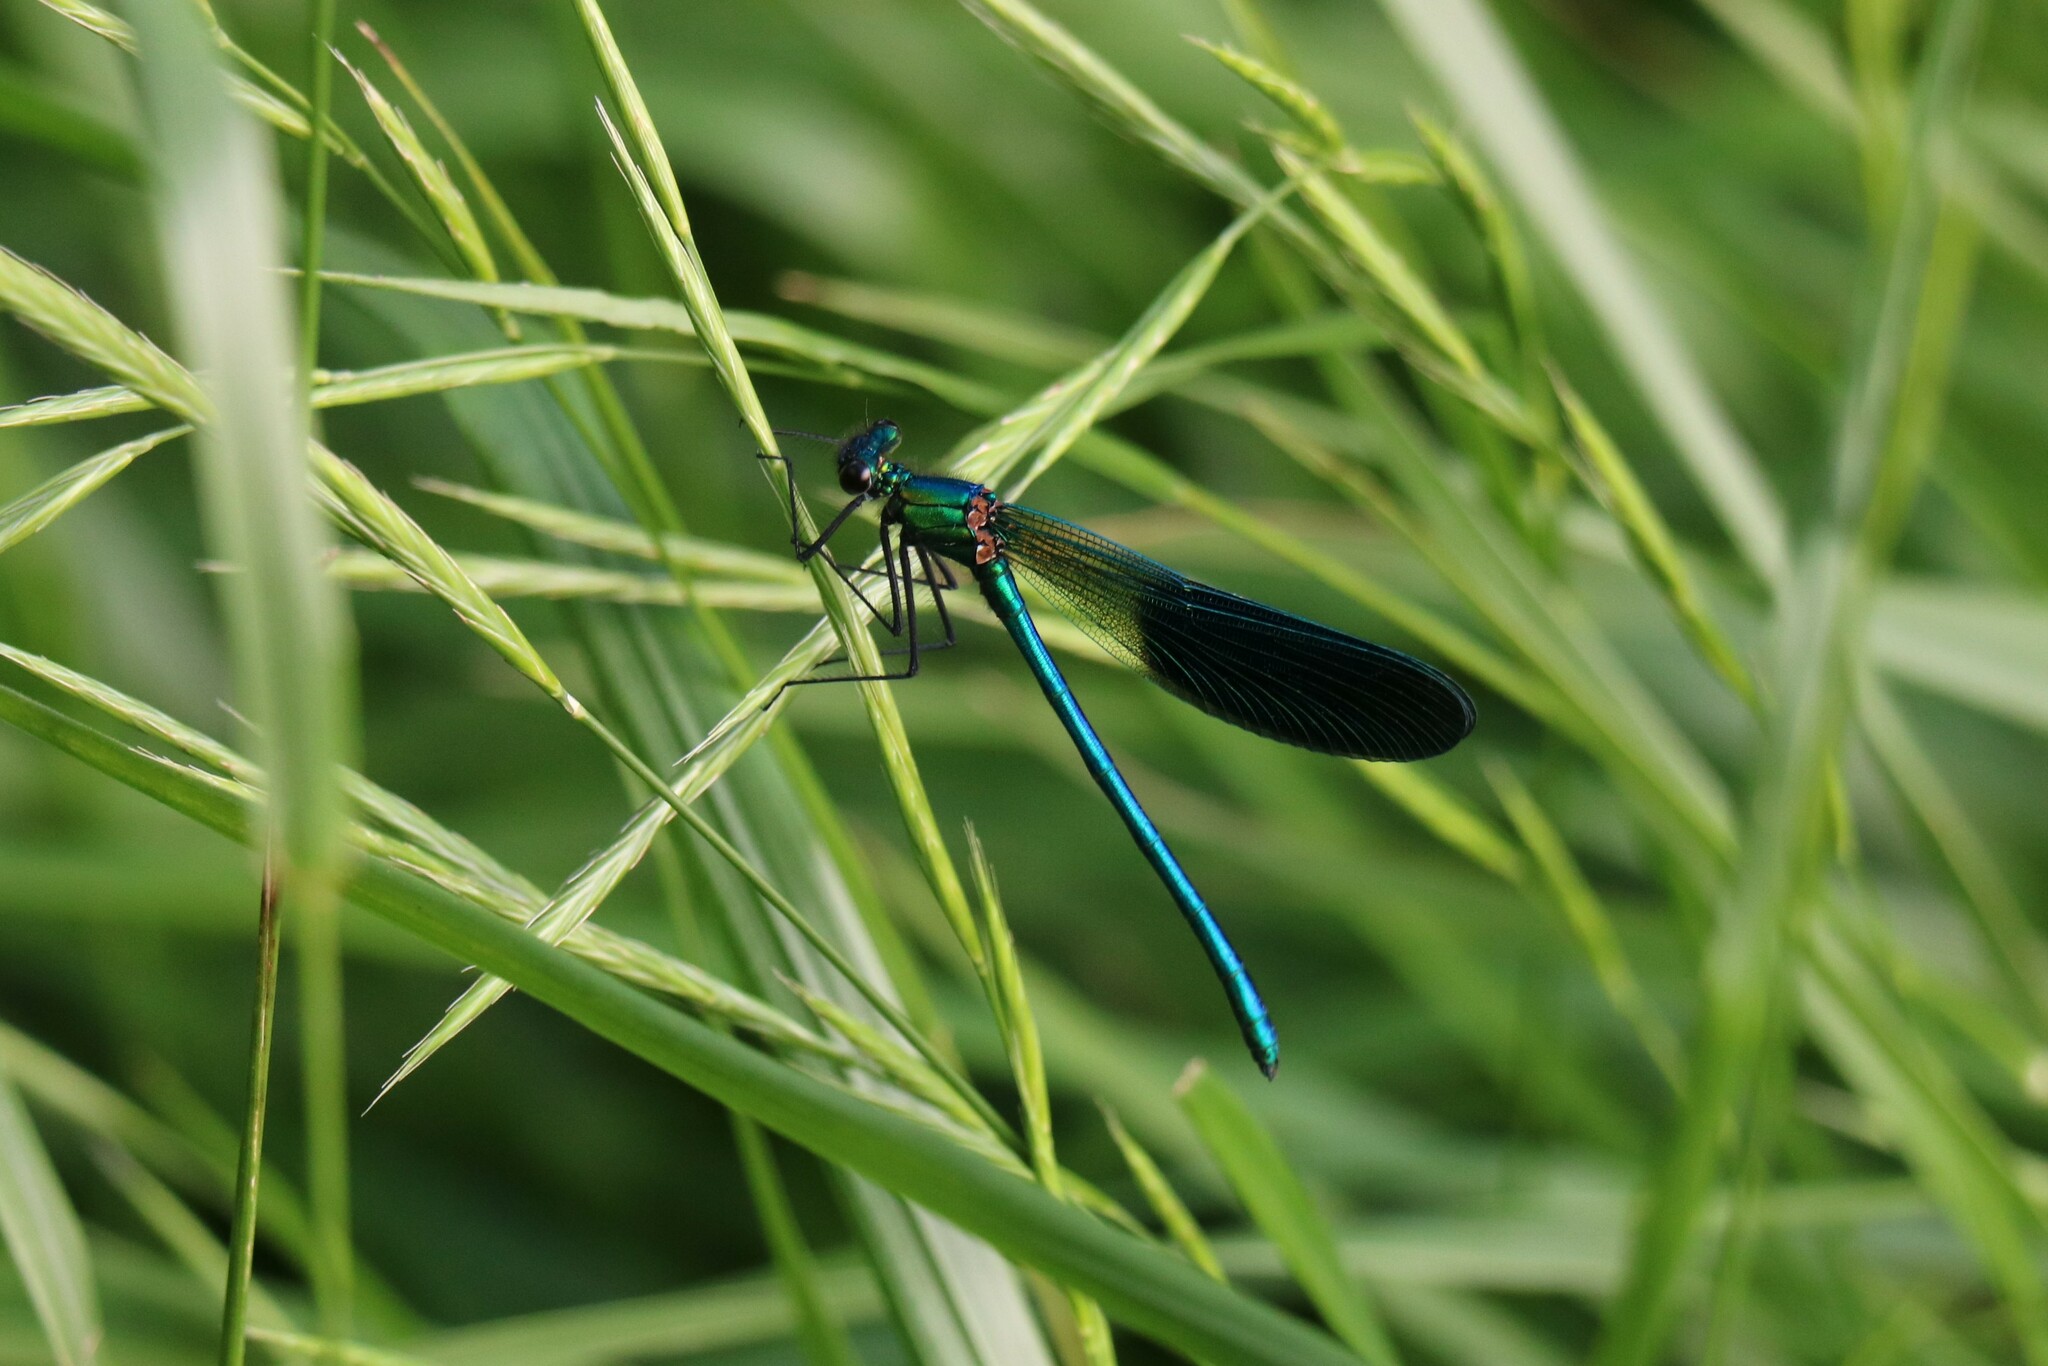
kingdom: Animalia
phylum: Arthropoda
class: Insecta
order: Odonata
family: Calopterygidae
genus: Calopteryx
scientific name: Calopteryx xanthostoma
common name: Western demoiselle
